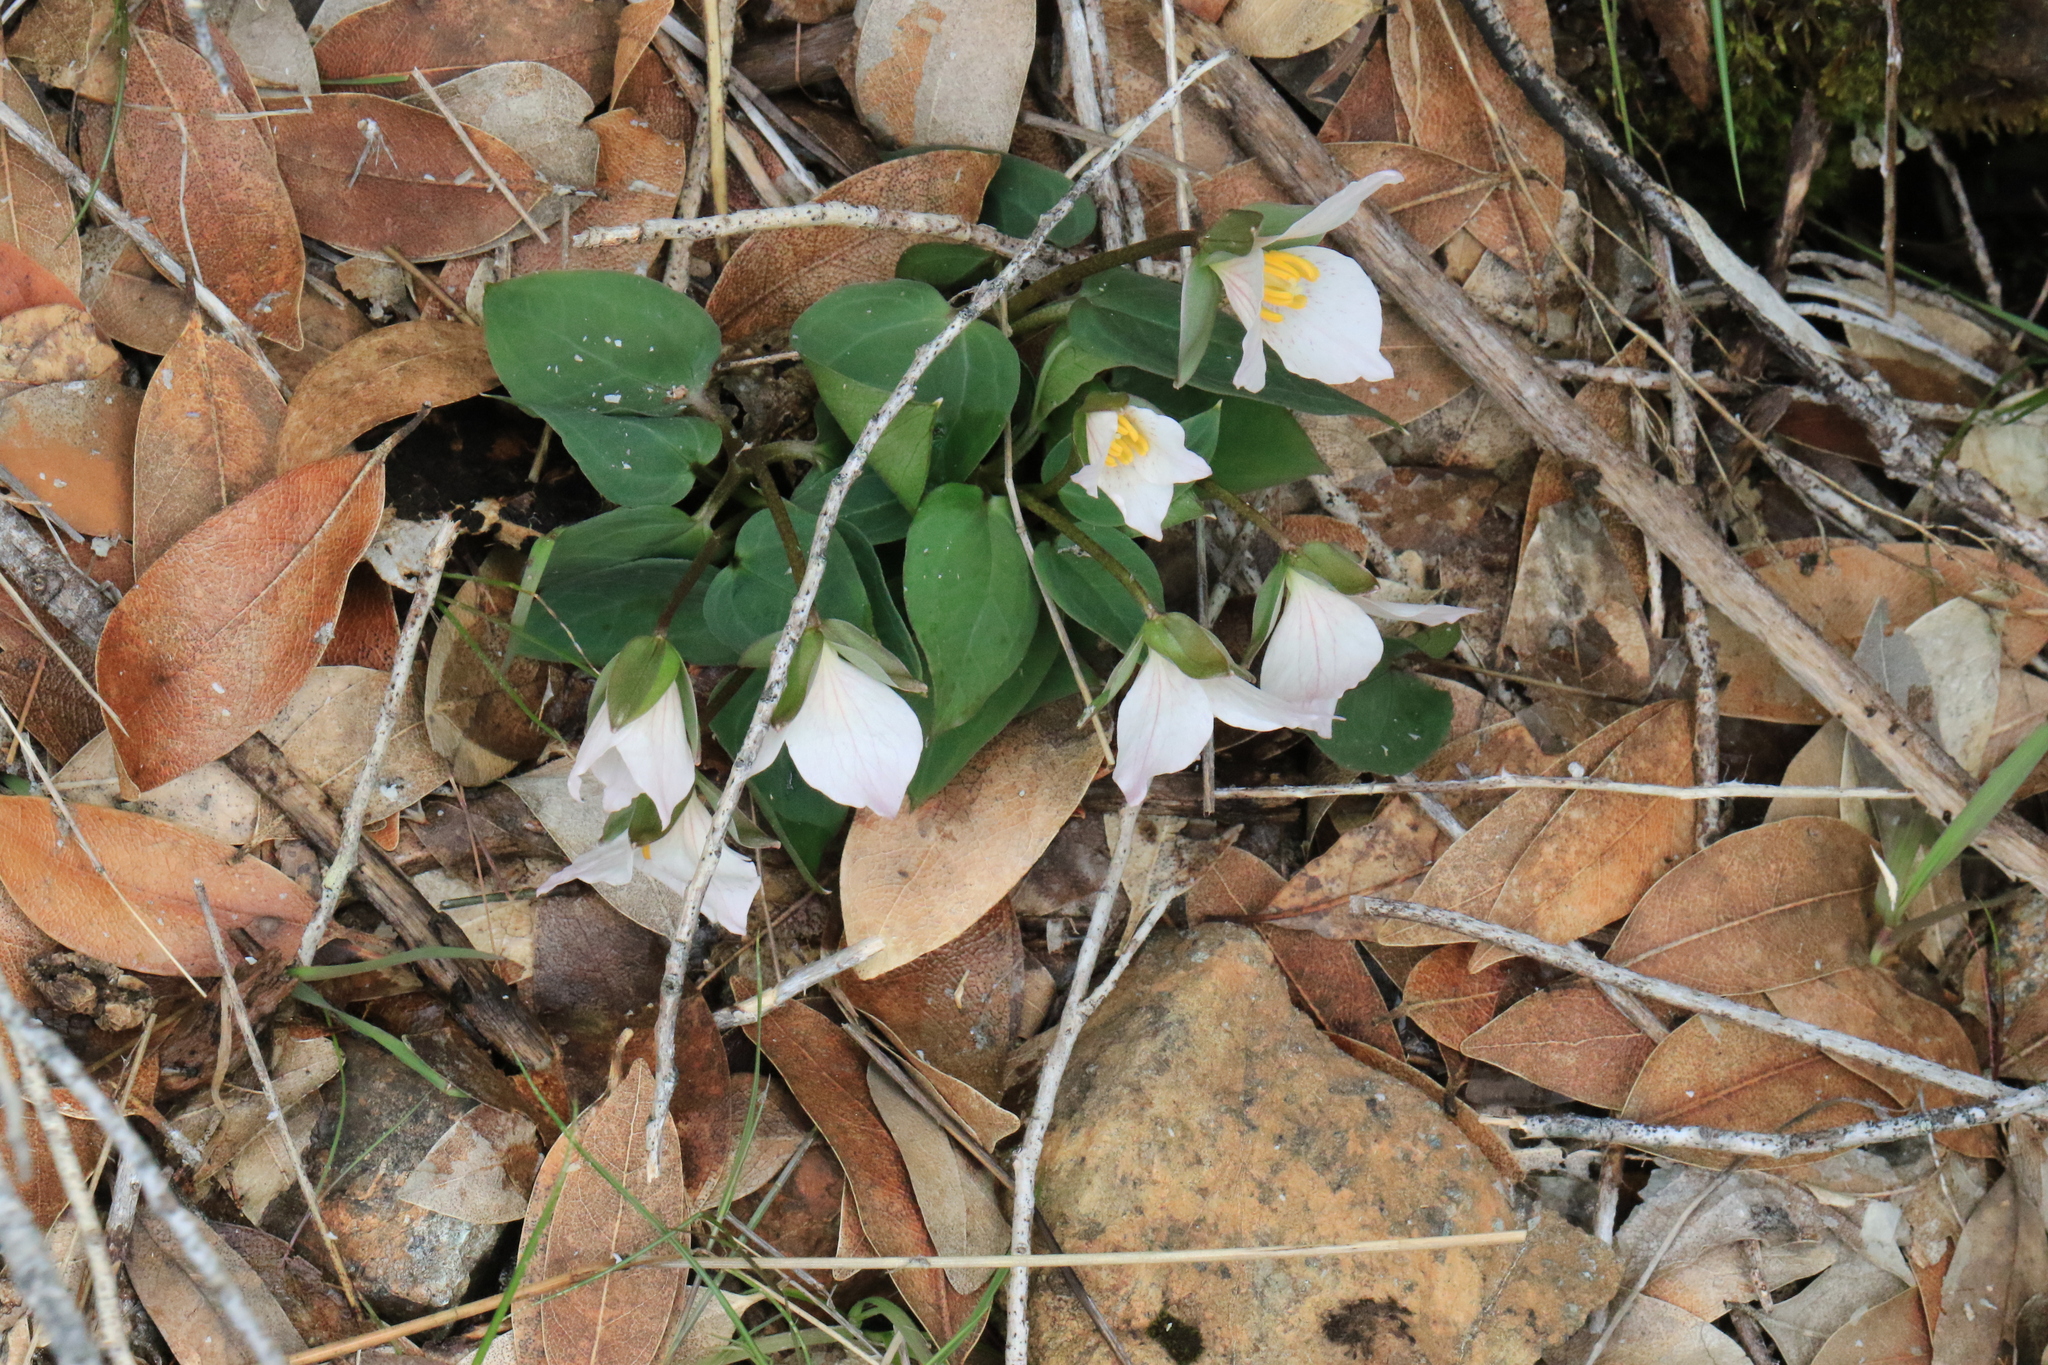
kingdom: Plantae
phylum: Tracheophyta
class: Liliopsida
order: Liliales
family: Melanthiaceae
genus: Pseudotrillium
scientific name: Pseudotrillium rivale
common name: Brook wakerobin
